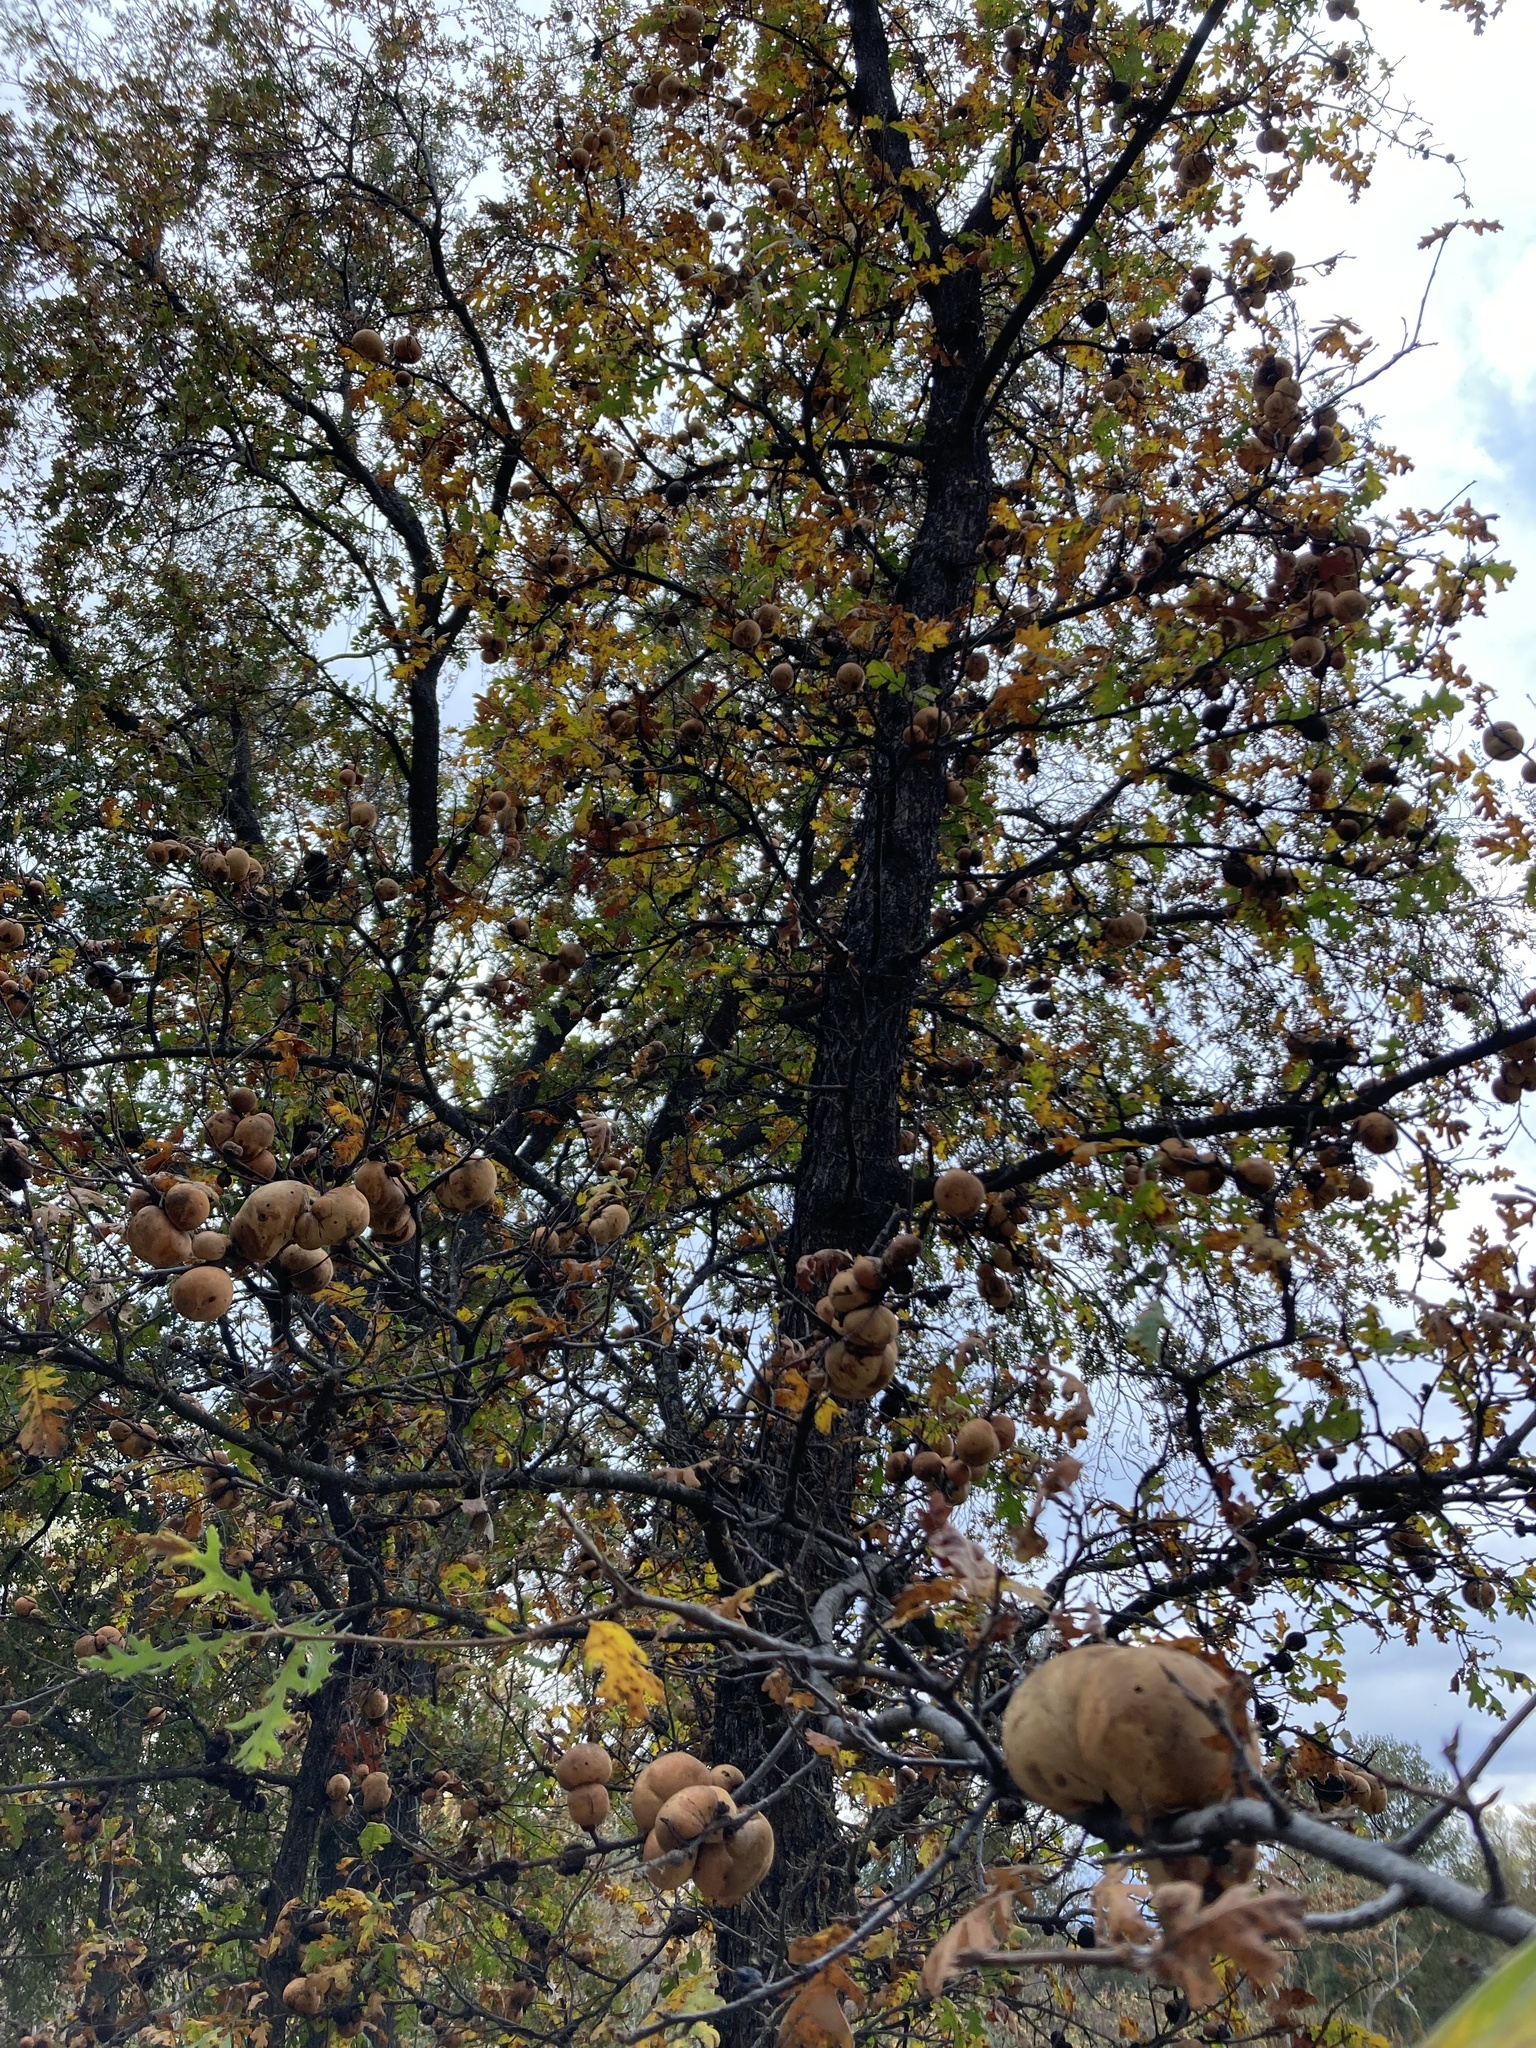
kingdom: Animalia
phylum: Arthropoda
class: Insecta
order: Hymenoptera
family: Cynipidae
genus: Andricus
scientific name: Andricus quercuscalifornicus
